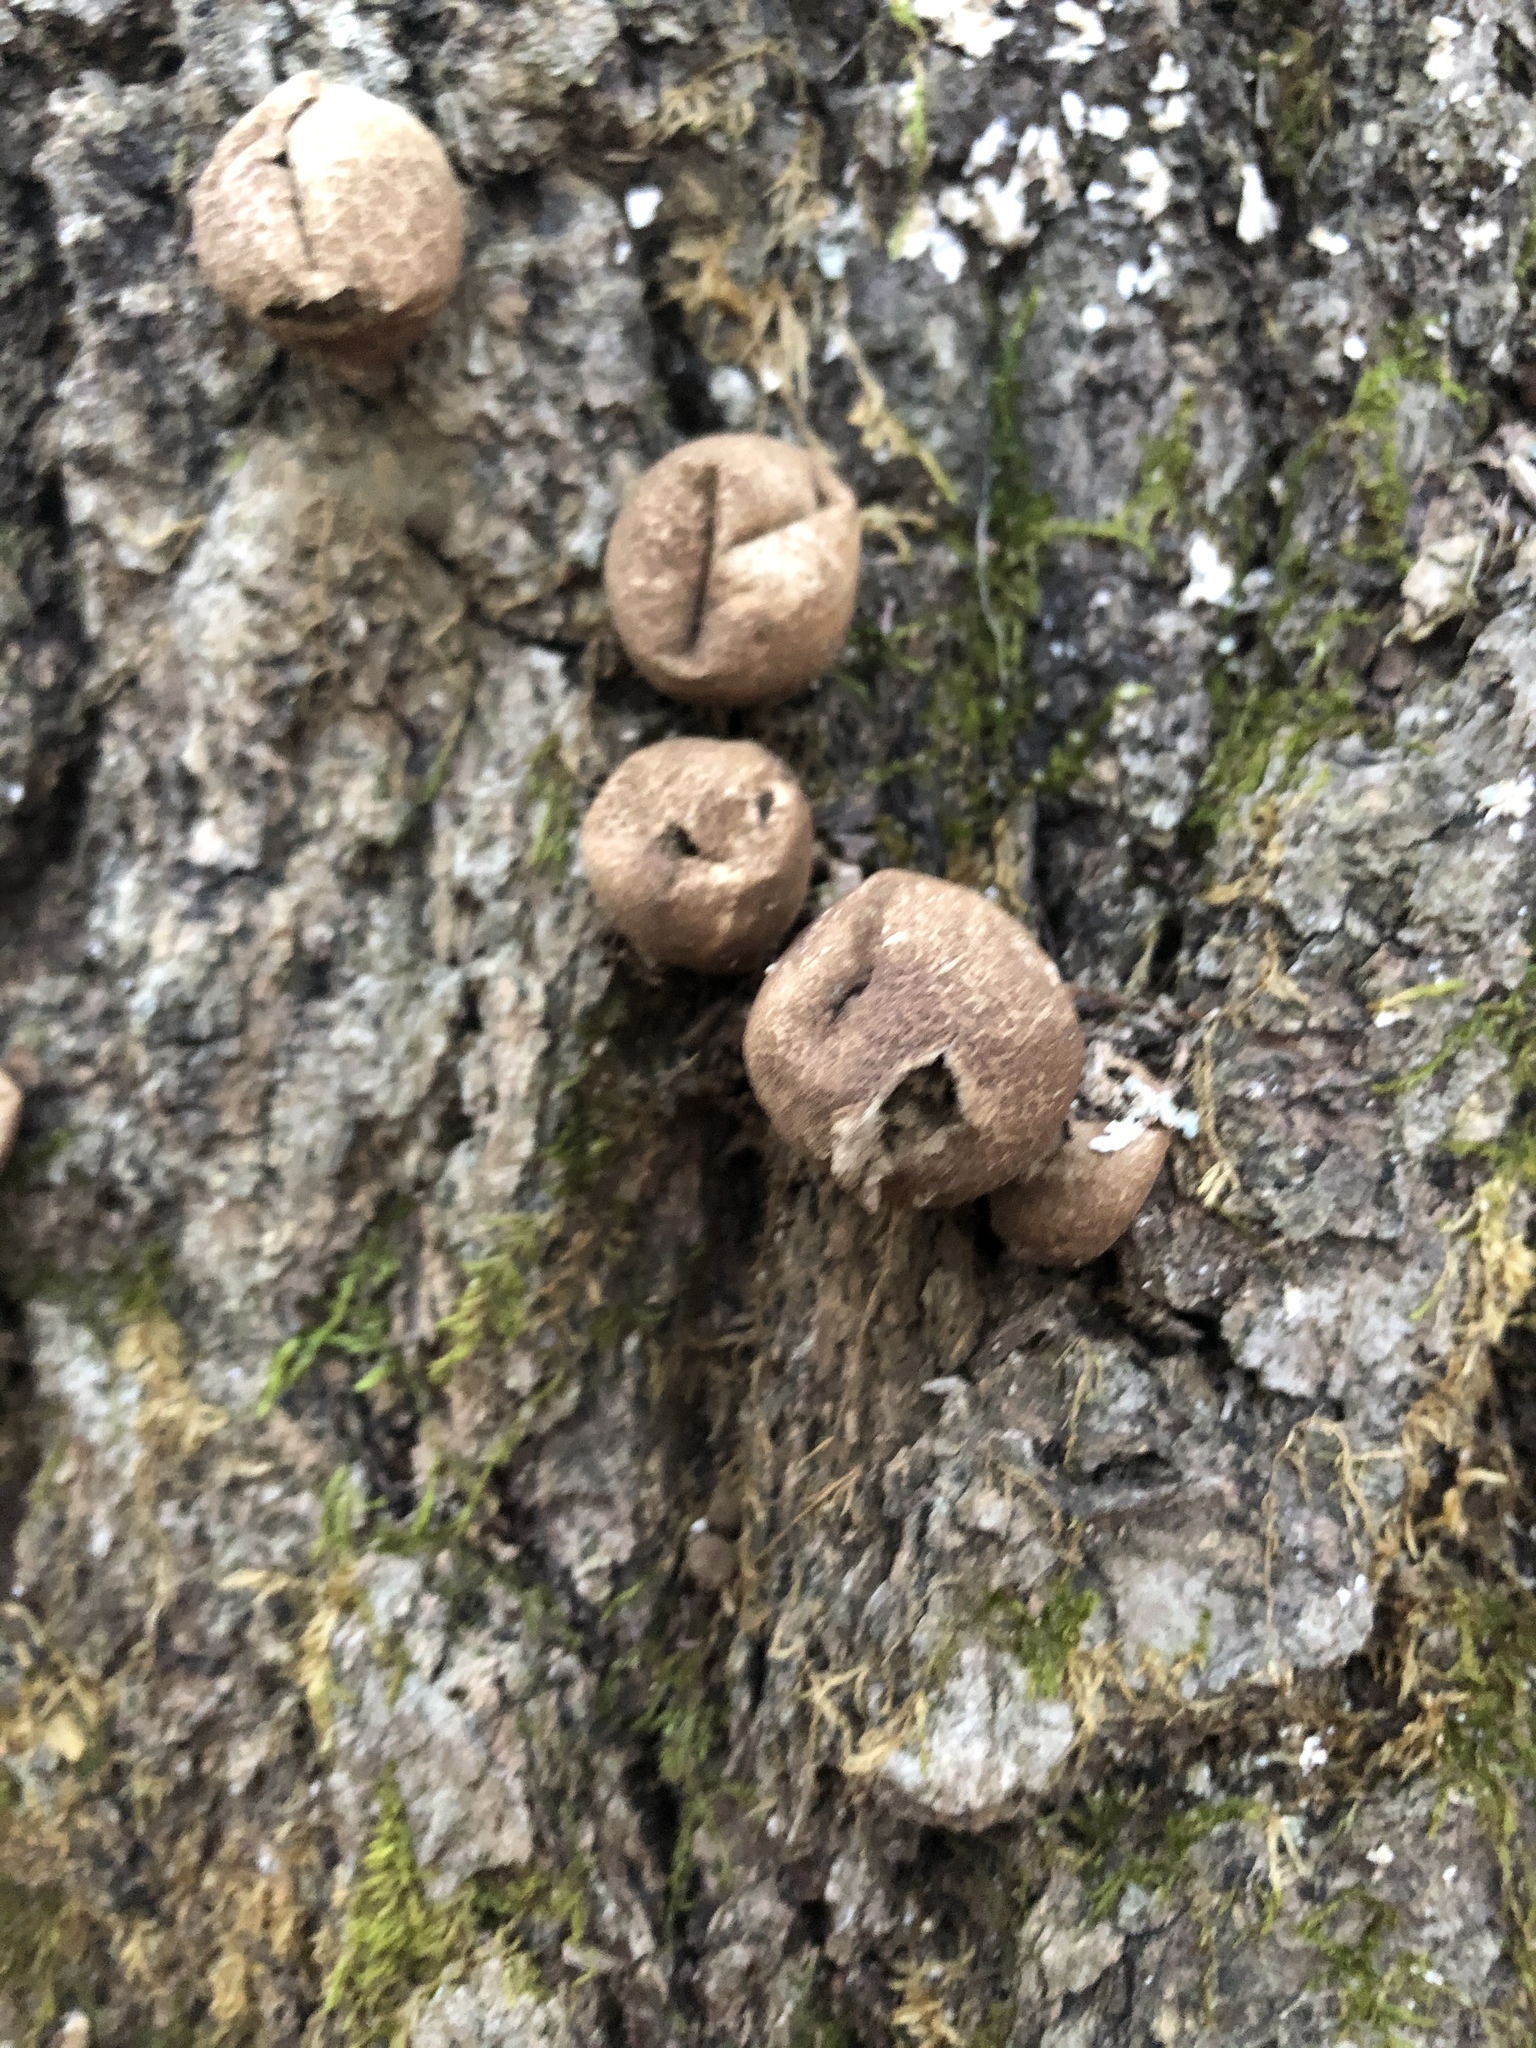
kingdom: Fungi
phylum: Basidiomycota
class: Agaricomycetes
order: Agaricales
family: Lycoperdaceae
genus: Apioperdon
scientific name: Apioperdon pyriforme
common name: Pear-shaped puffball
